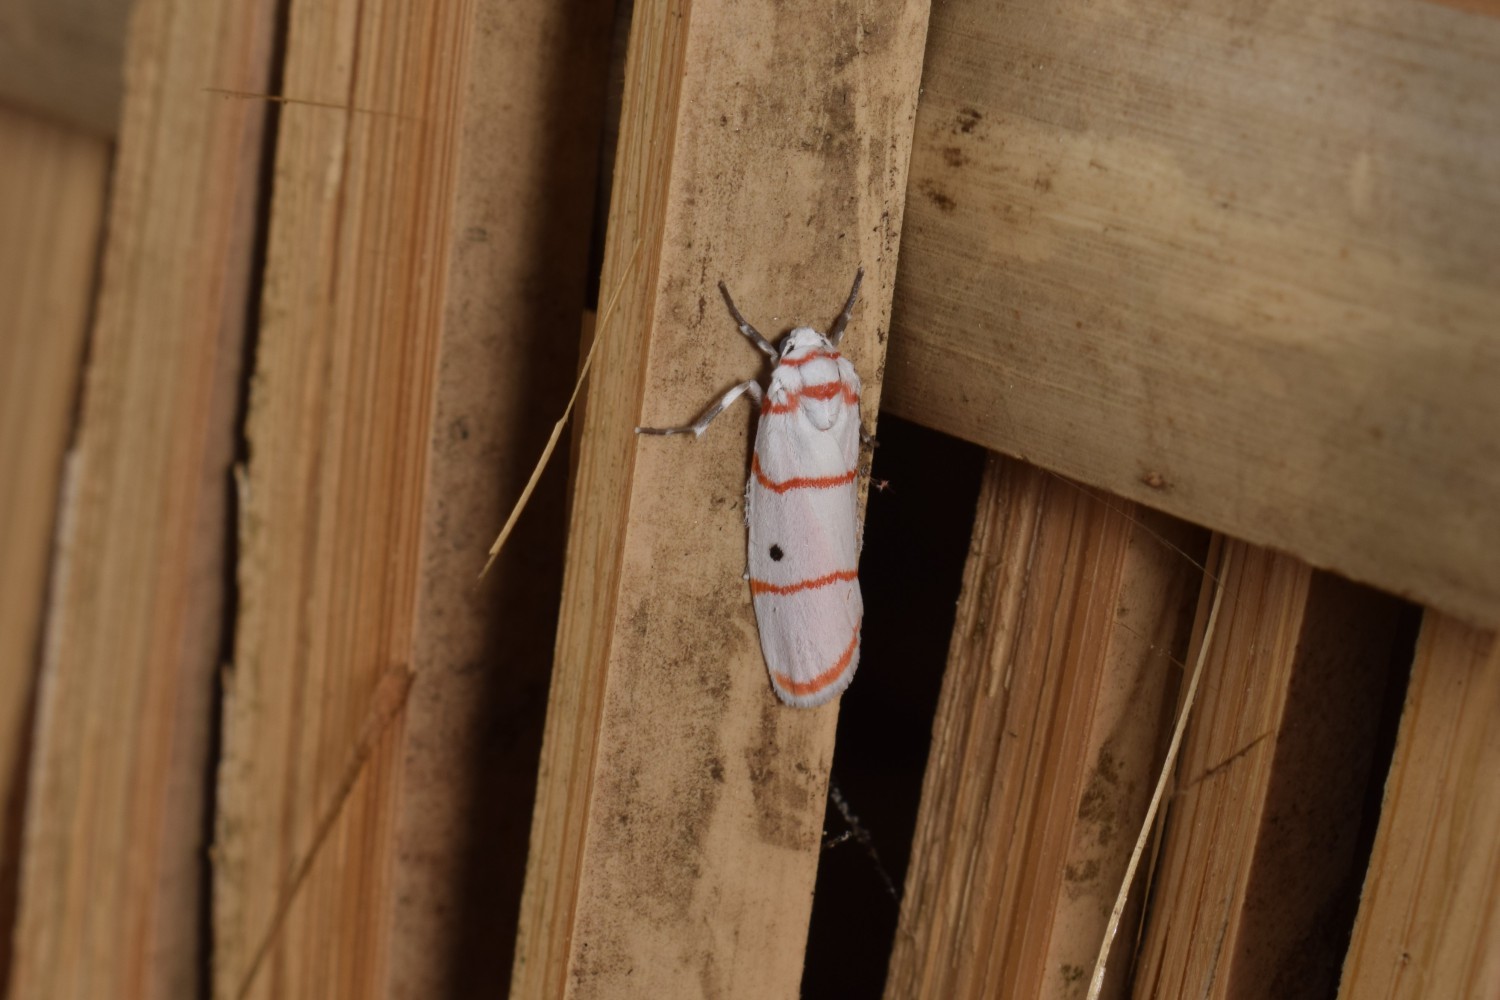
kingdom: Animalia
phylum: Arthropoda
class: Insecta
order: Lepidoptera
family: Erebidae
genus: Cyana
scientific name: Cyana catorhoda
